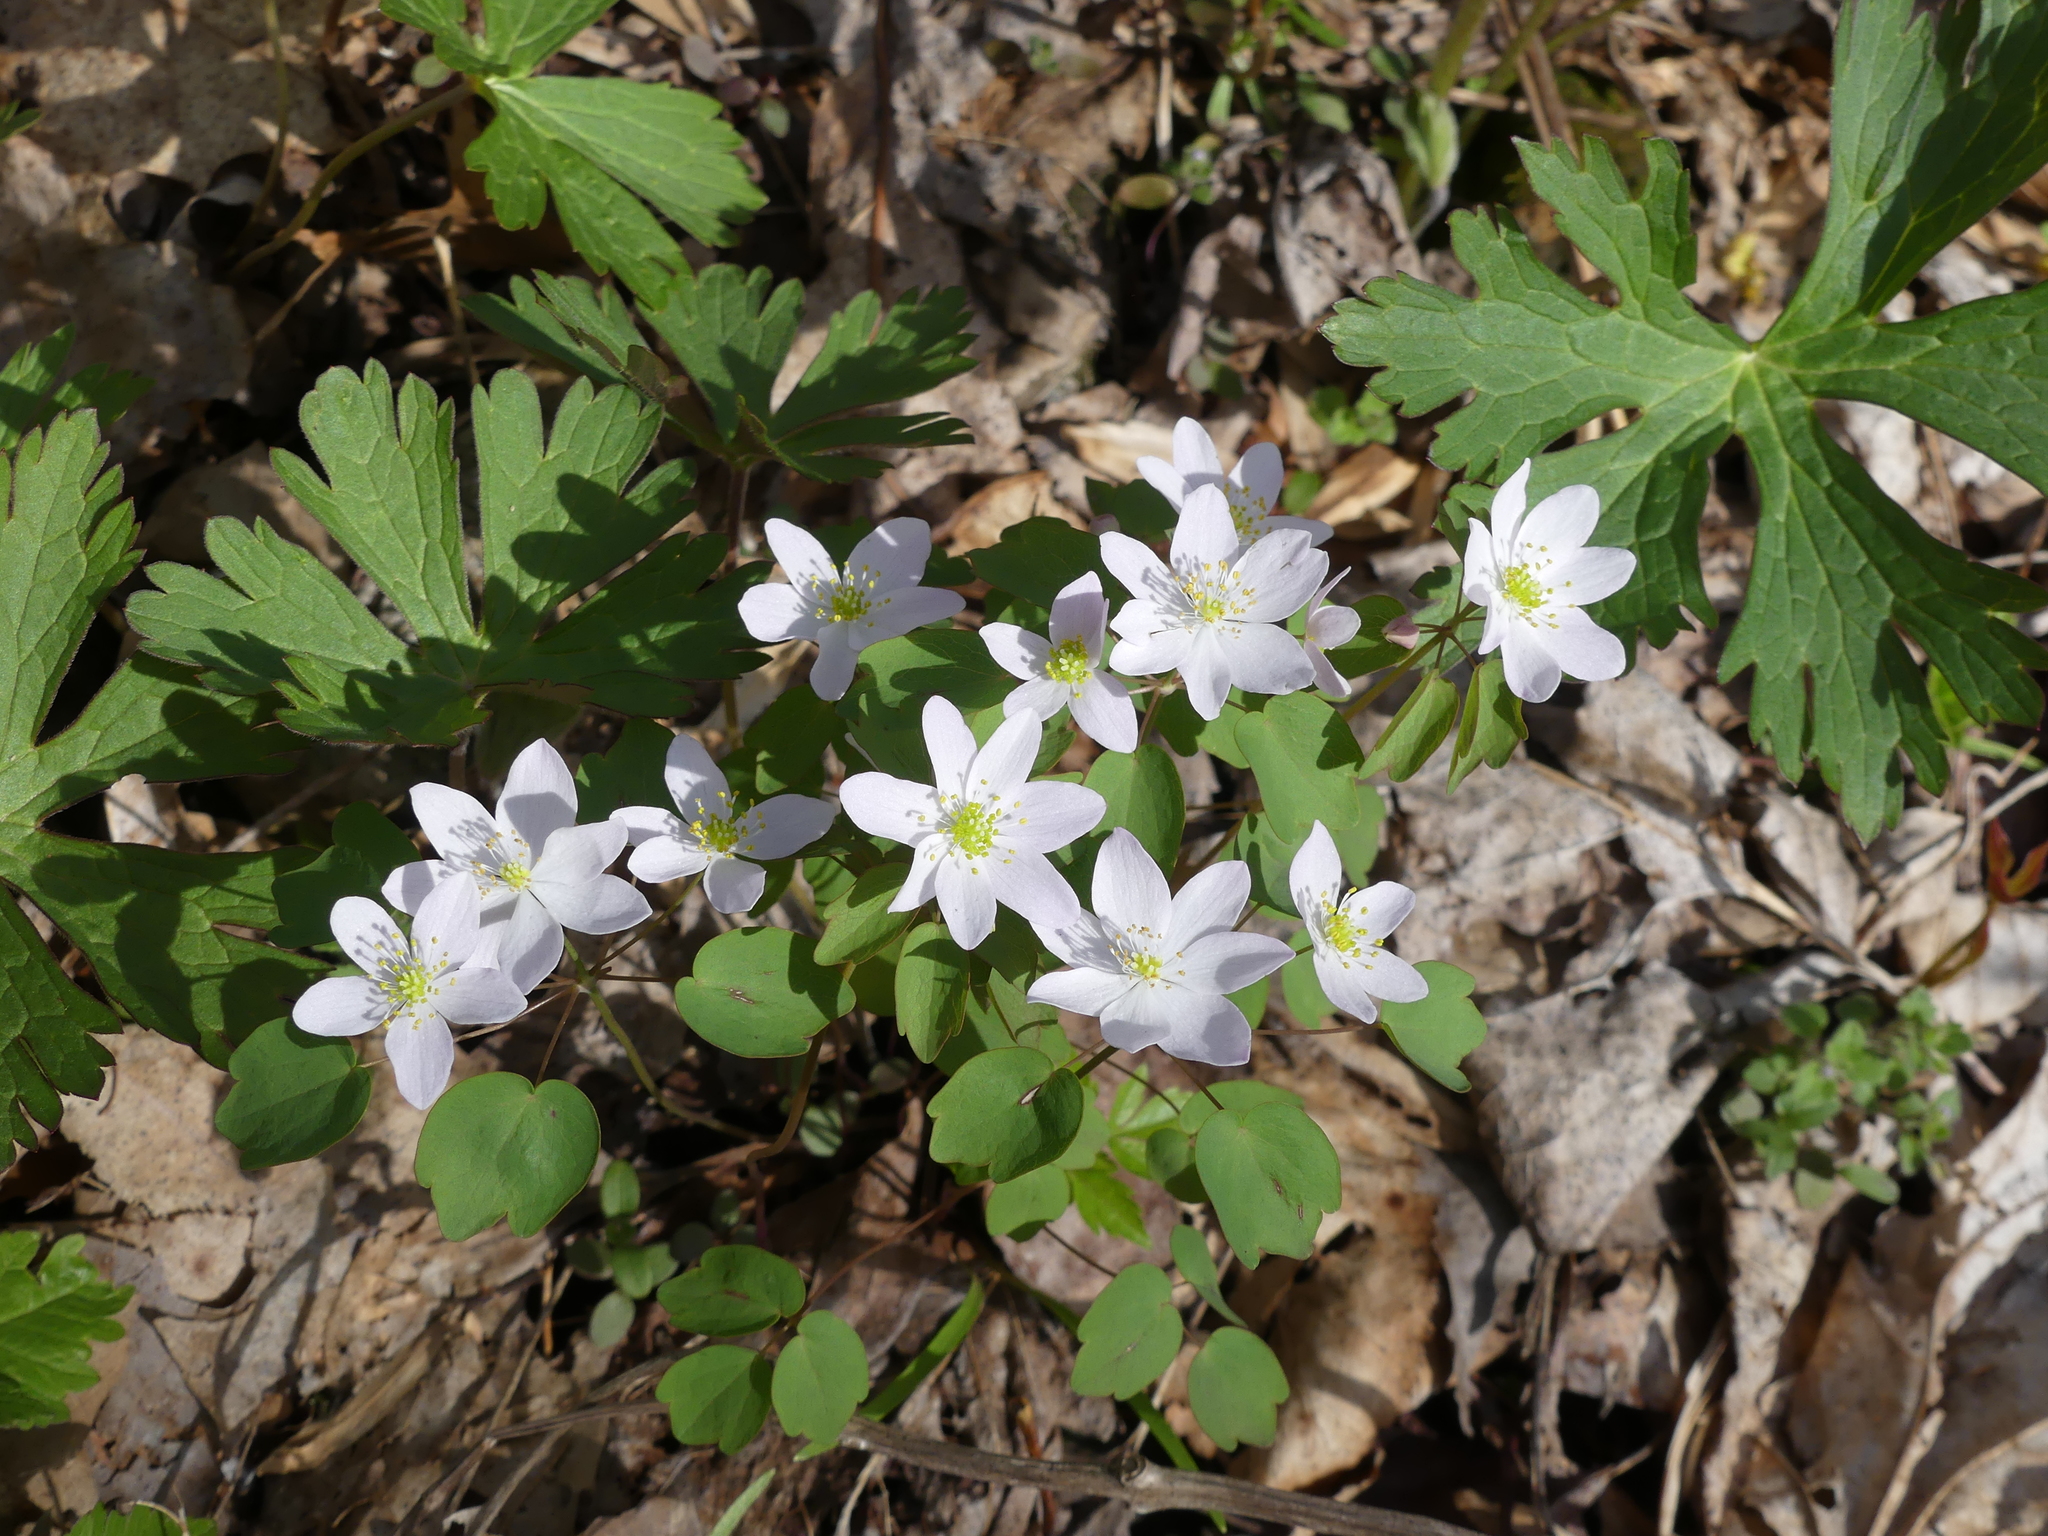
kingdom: Plantae
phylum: Tracheophyta
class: Magnoliopsida
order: Ranunculales
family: Ranunculaceae
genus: Thalictrum
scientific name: Thalictrum thalictroides
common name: Rue-anemone
